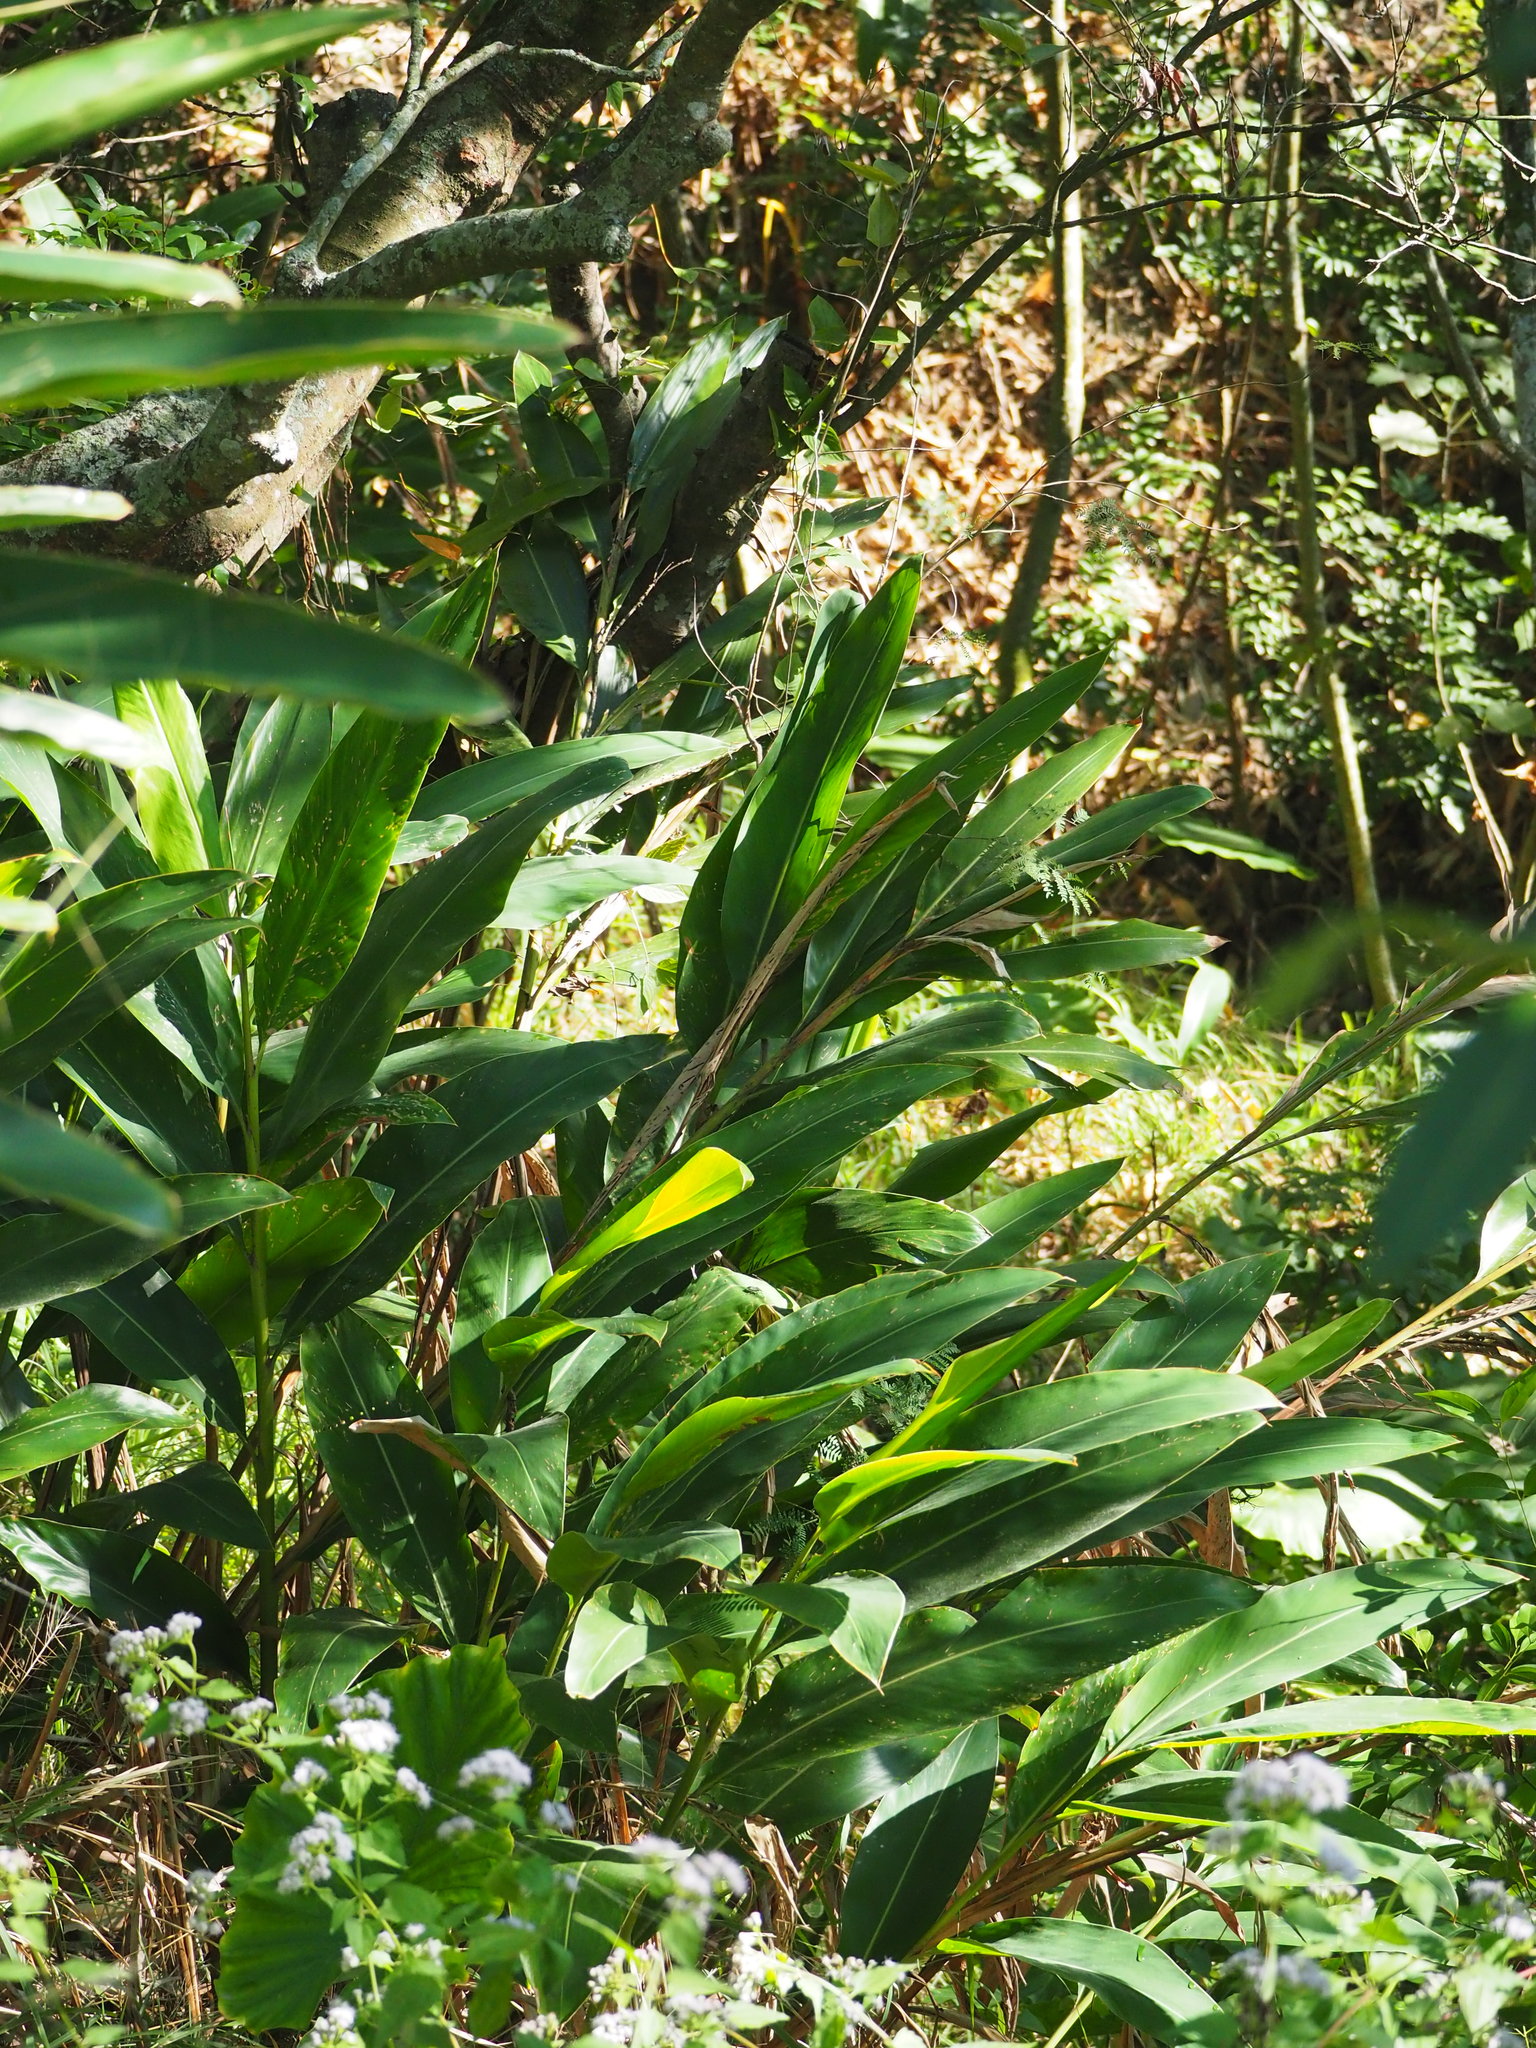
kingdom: Plantae
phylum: Tracheophyta
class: Liliopsida
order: Zingiberales
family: Zingiberaceae
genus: Alpinia
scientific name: Alpinia zerumbet
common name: Shellplant
